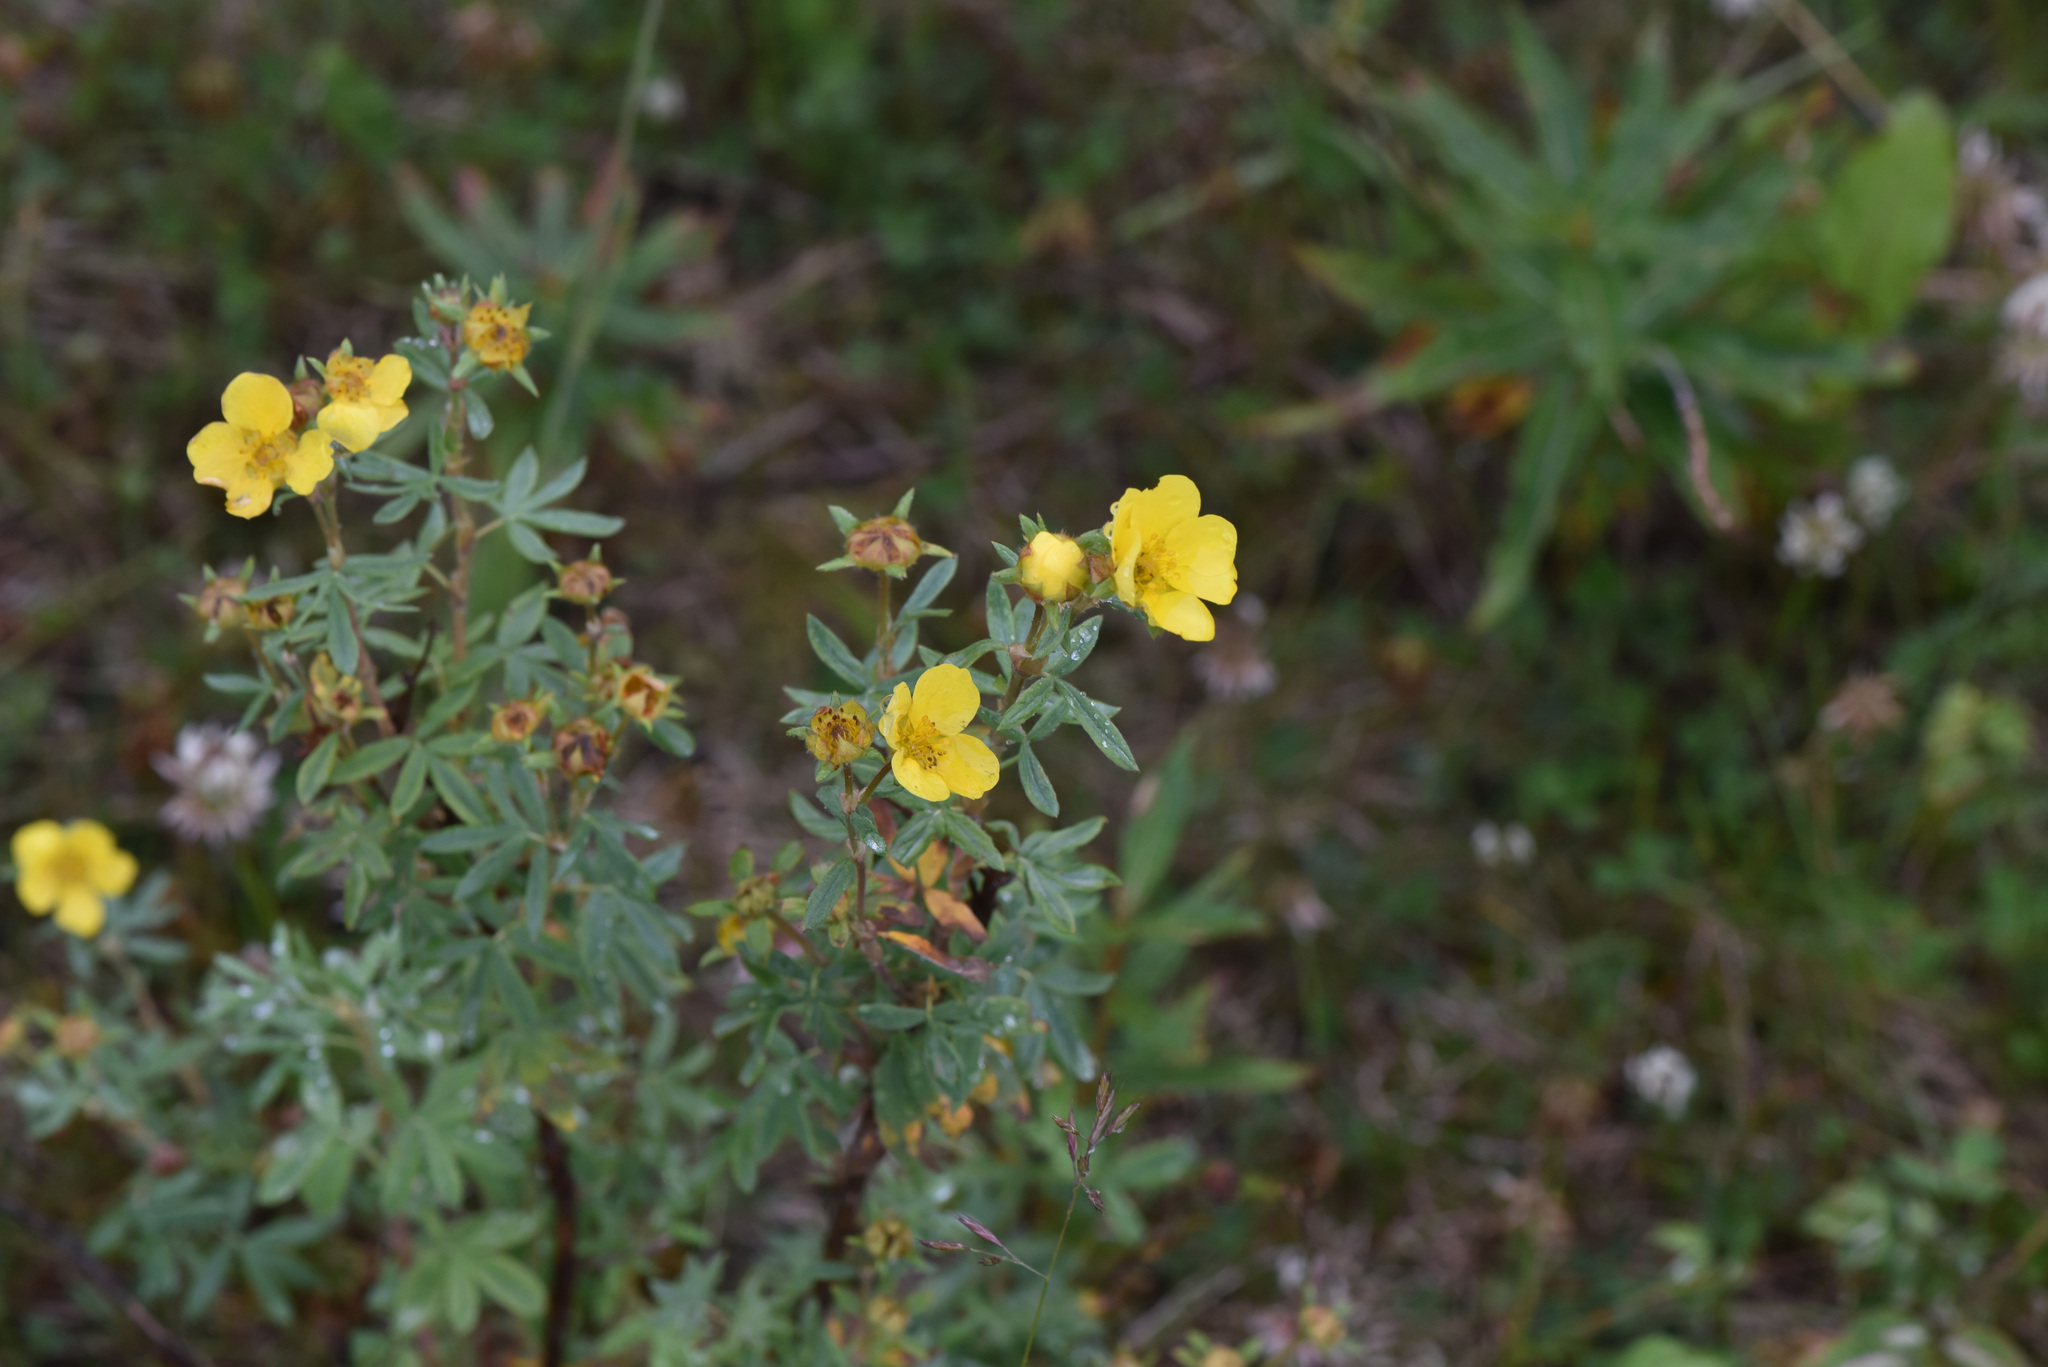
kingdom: Plantae
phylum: Tracheophyta
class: Magnoliopsida
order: Rosales
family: Rosaceae
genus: Dasiphora
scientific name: Dasiphora fruticosa
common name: Shrubby cinquefoil
